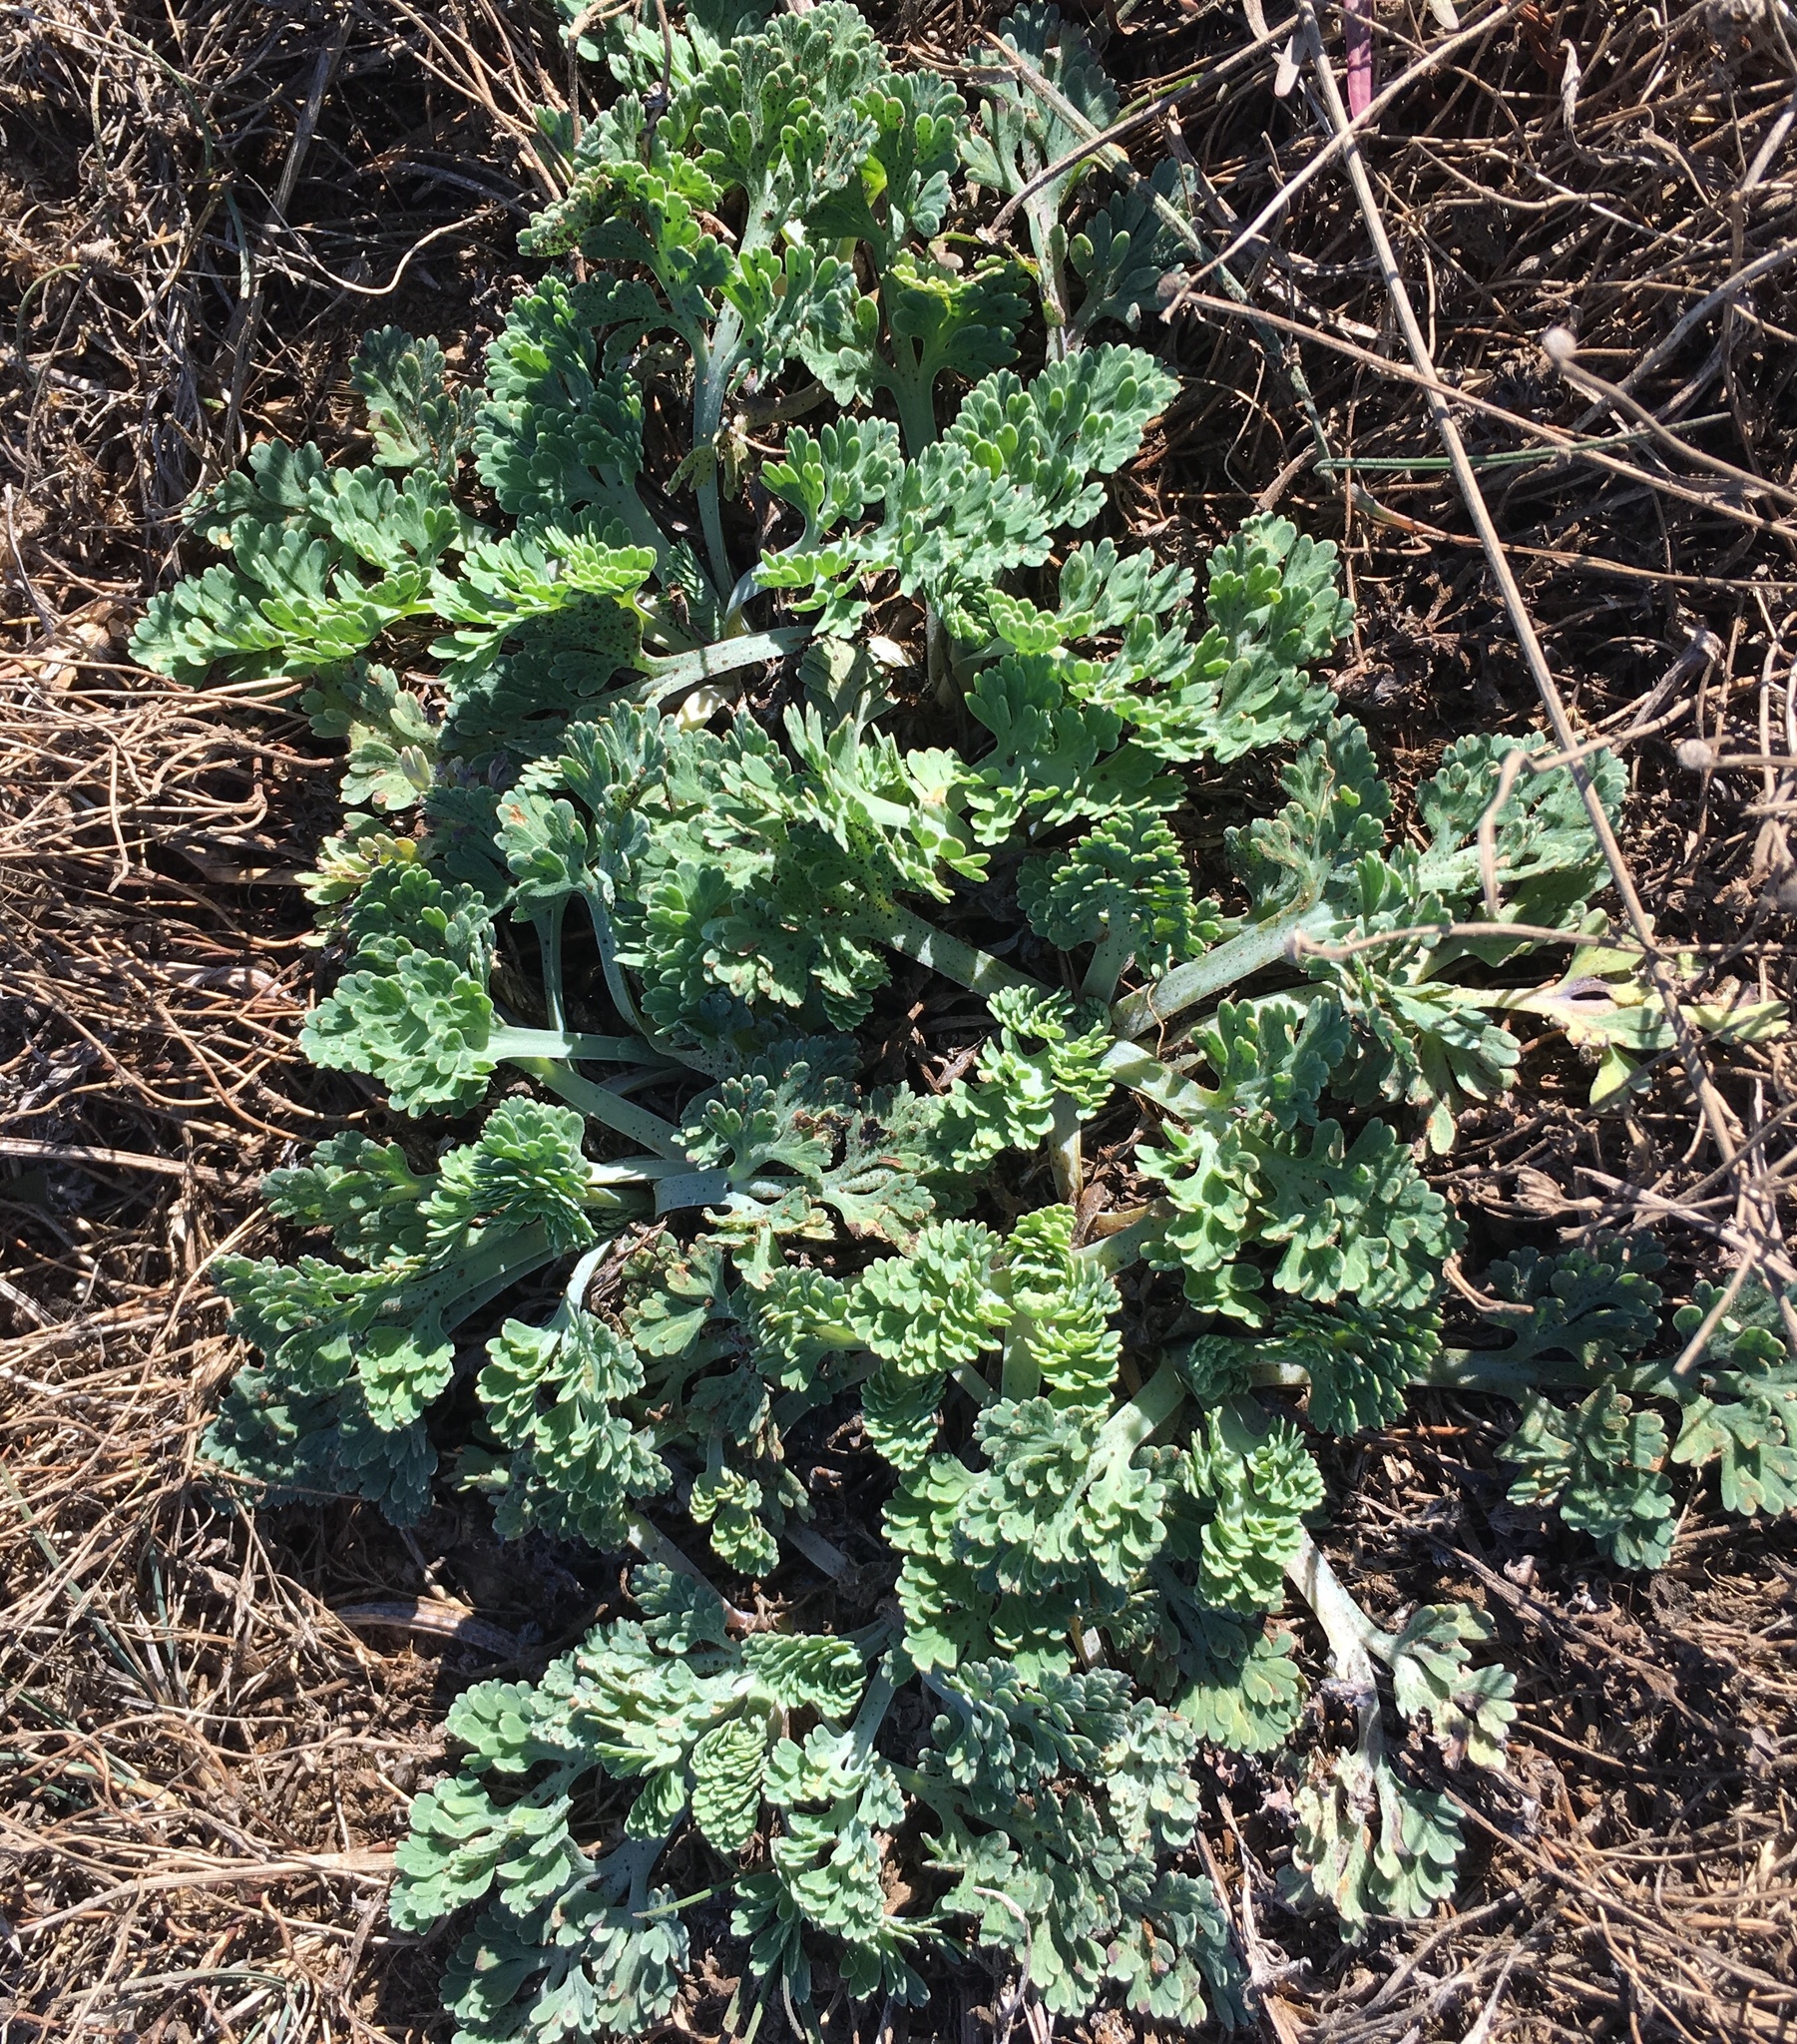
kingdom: Plantae
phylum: Tracheophyta
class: Magnoliopsida
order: Ranunculales
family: Papaveraceae
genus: Eschscholzia
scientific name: Eschscholzia californica
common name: California poppy
